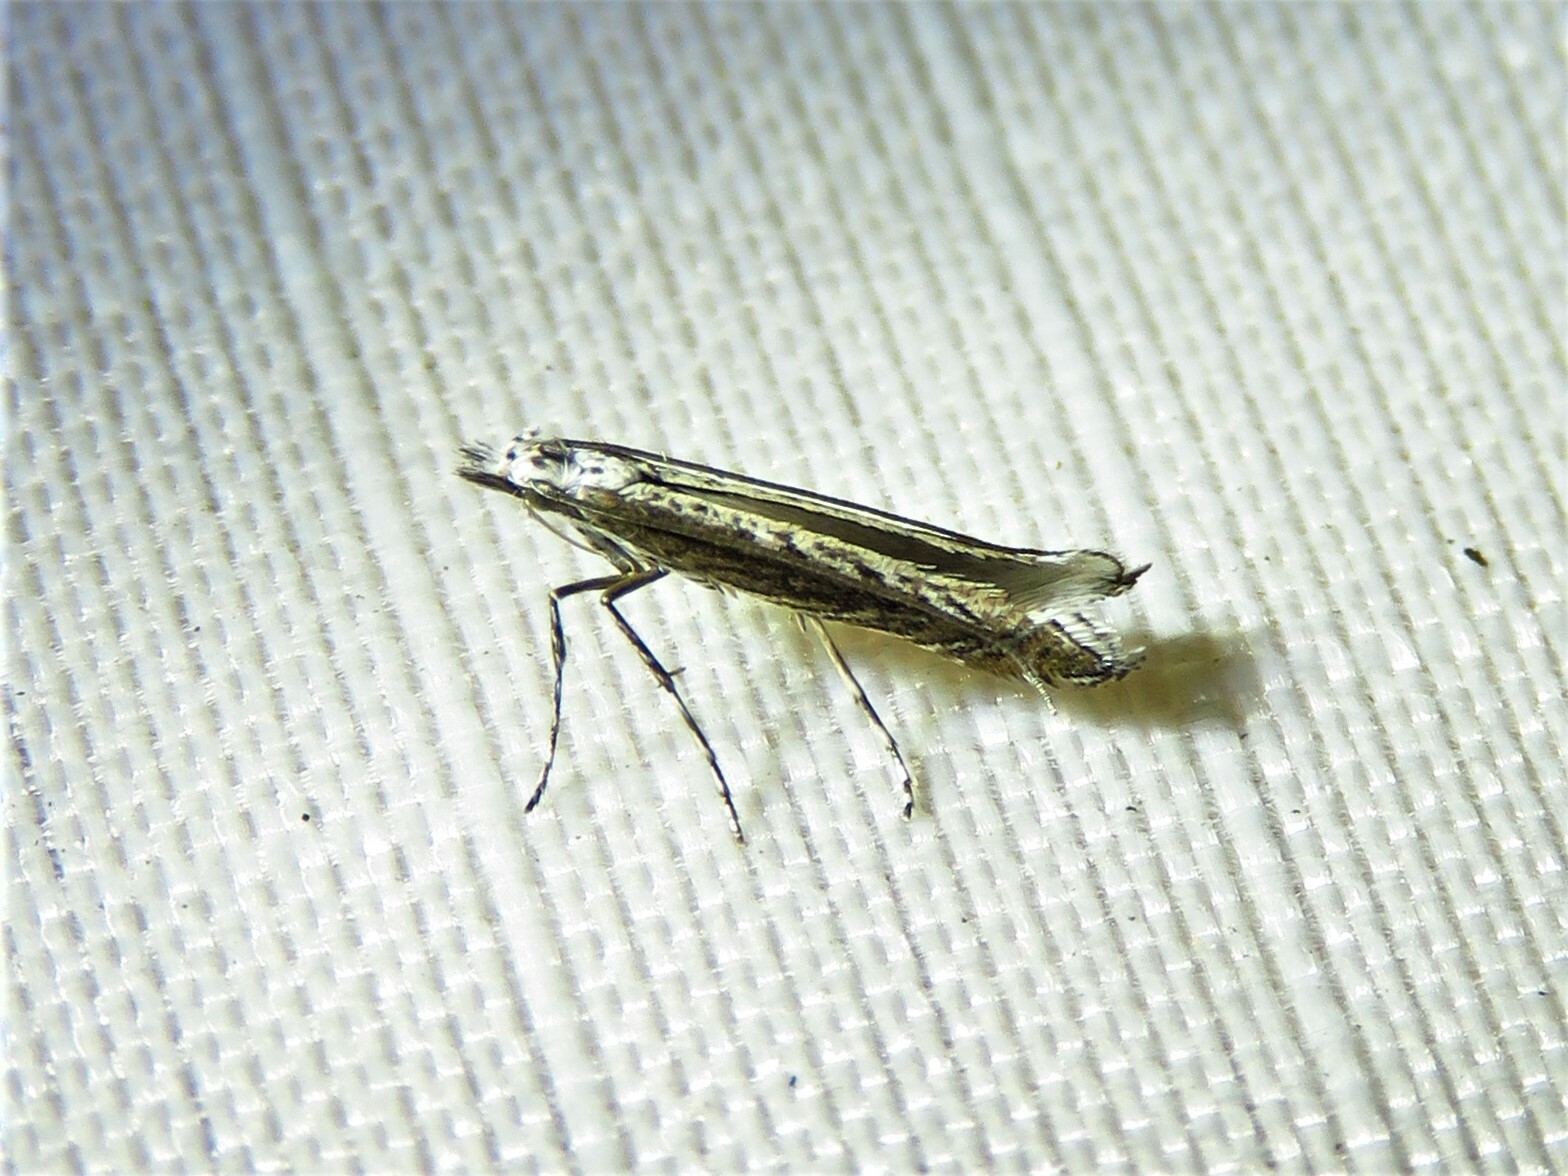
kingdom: Plantae
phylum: Rhodophyta
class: Florideophyceae
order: Gracilariales
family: Gracilariaceae
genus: Gracilaria
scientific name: Gracilaria
